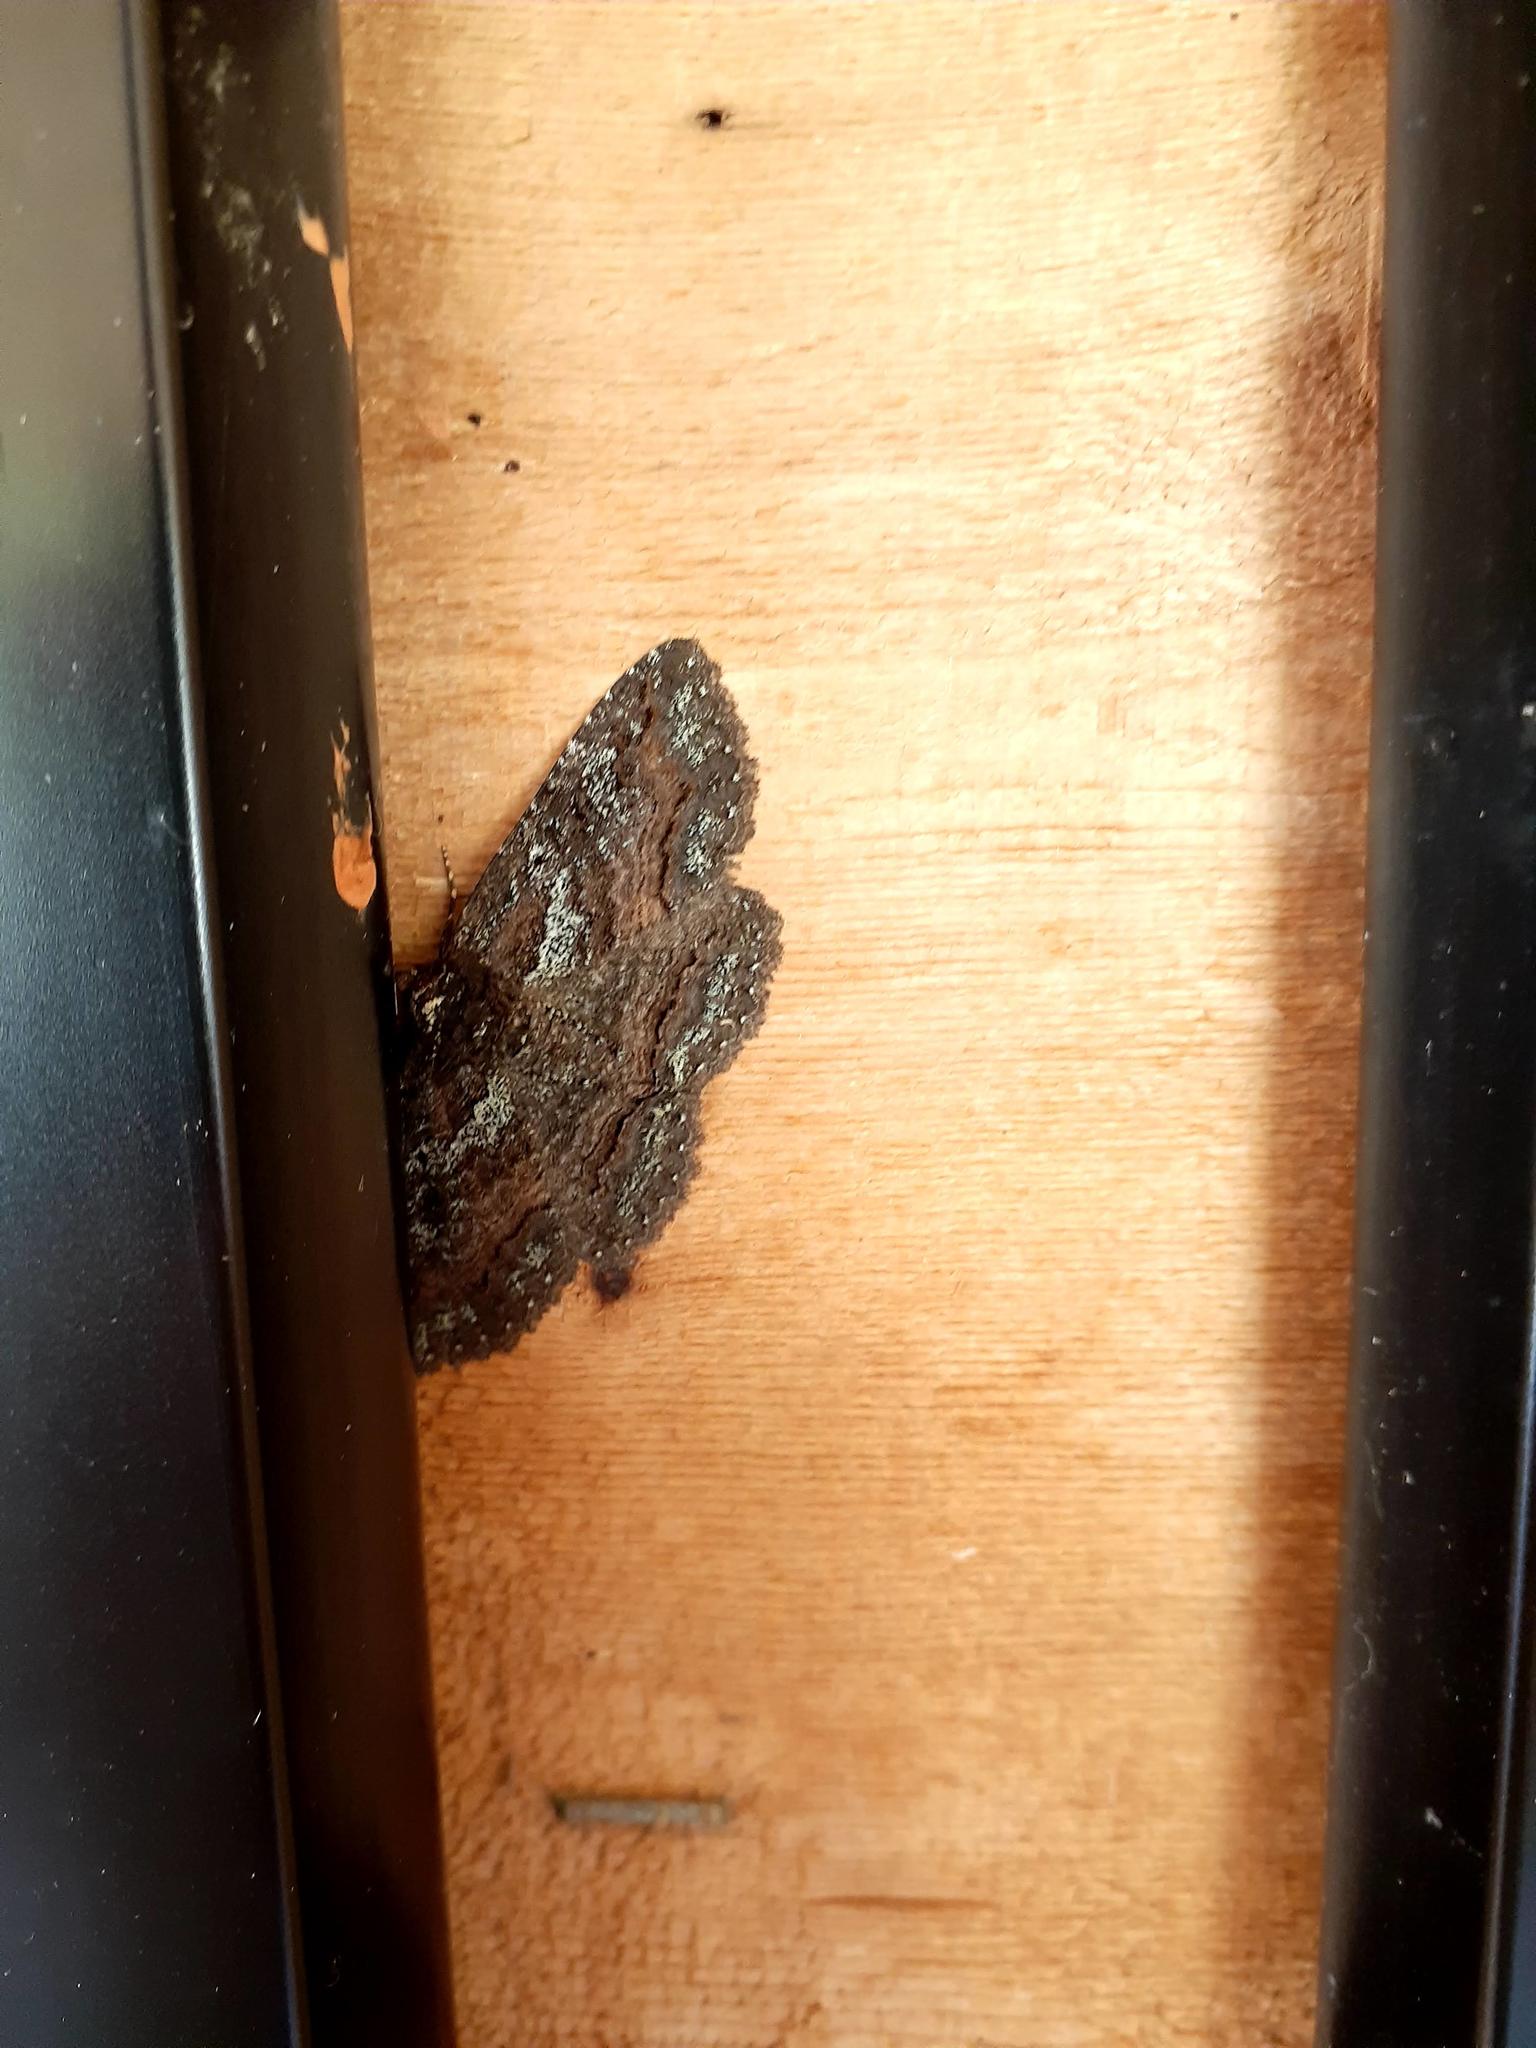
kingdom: Animalia
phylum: Arthropoda
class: Insecta
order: Lepidoptera
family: Erebidae
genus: Zale
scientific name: Zale aeruginosa
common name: Green-dusted zale moth
